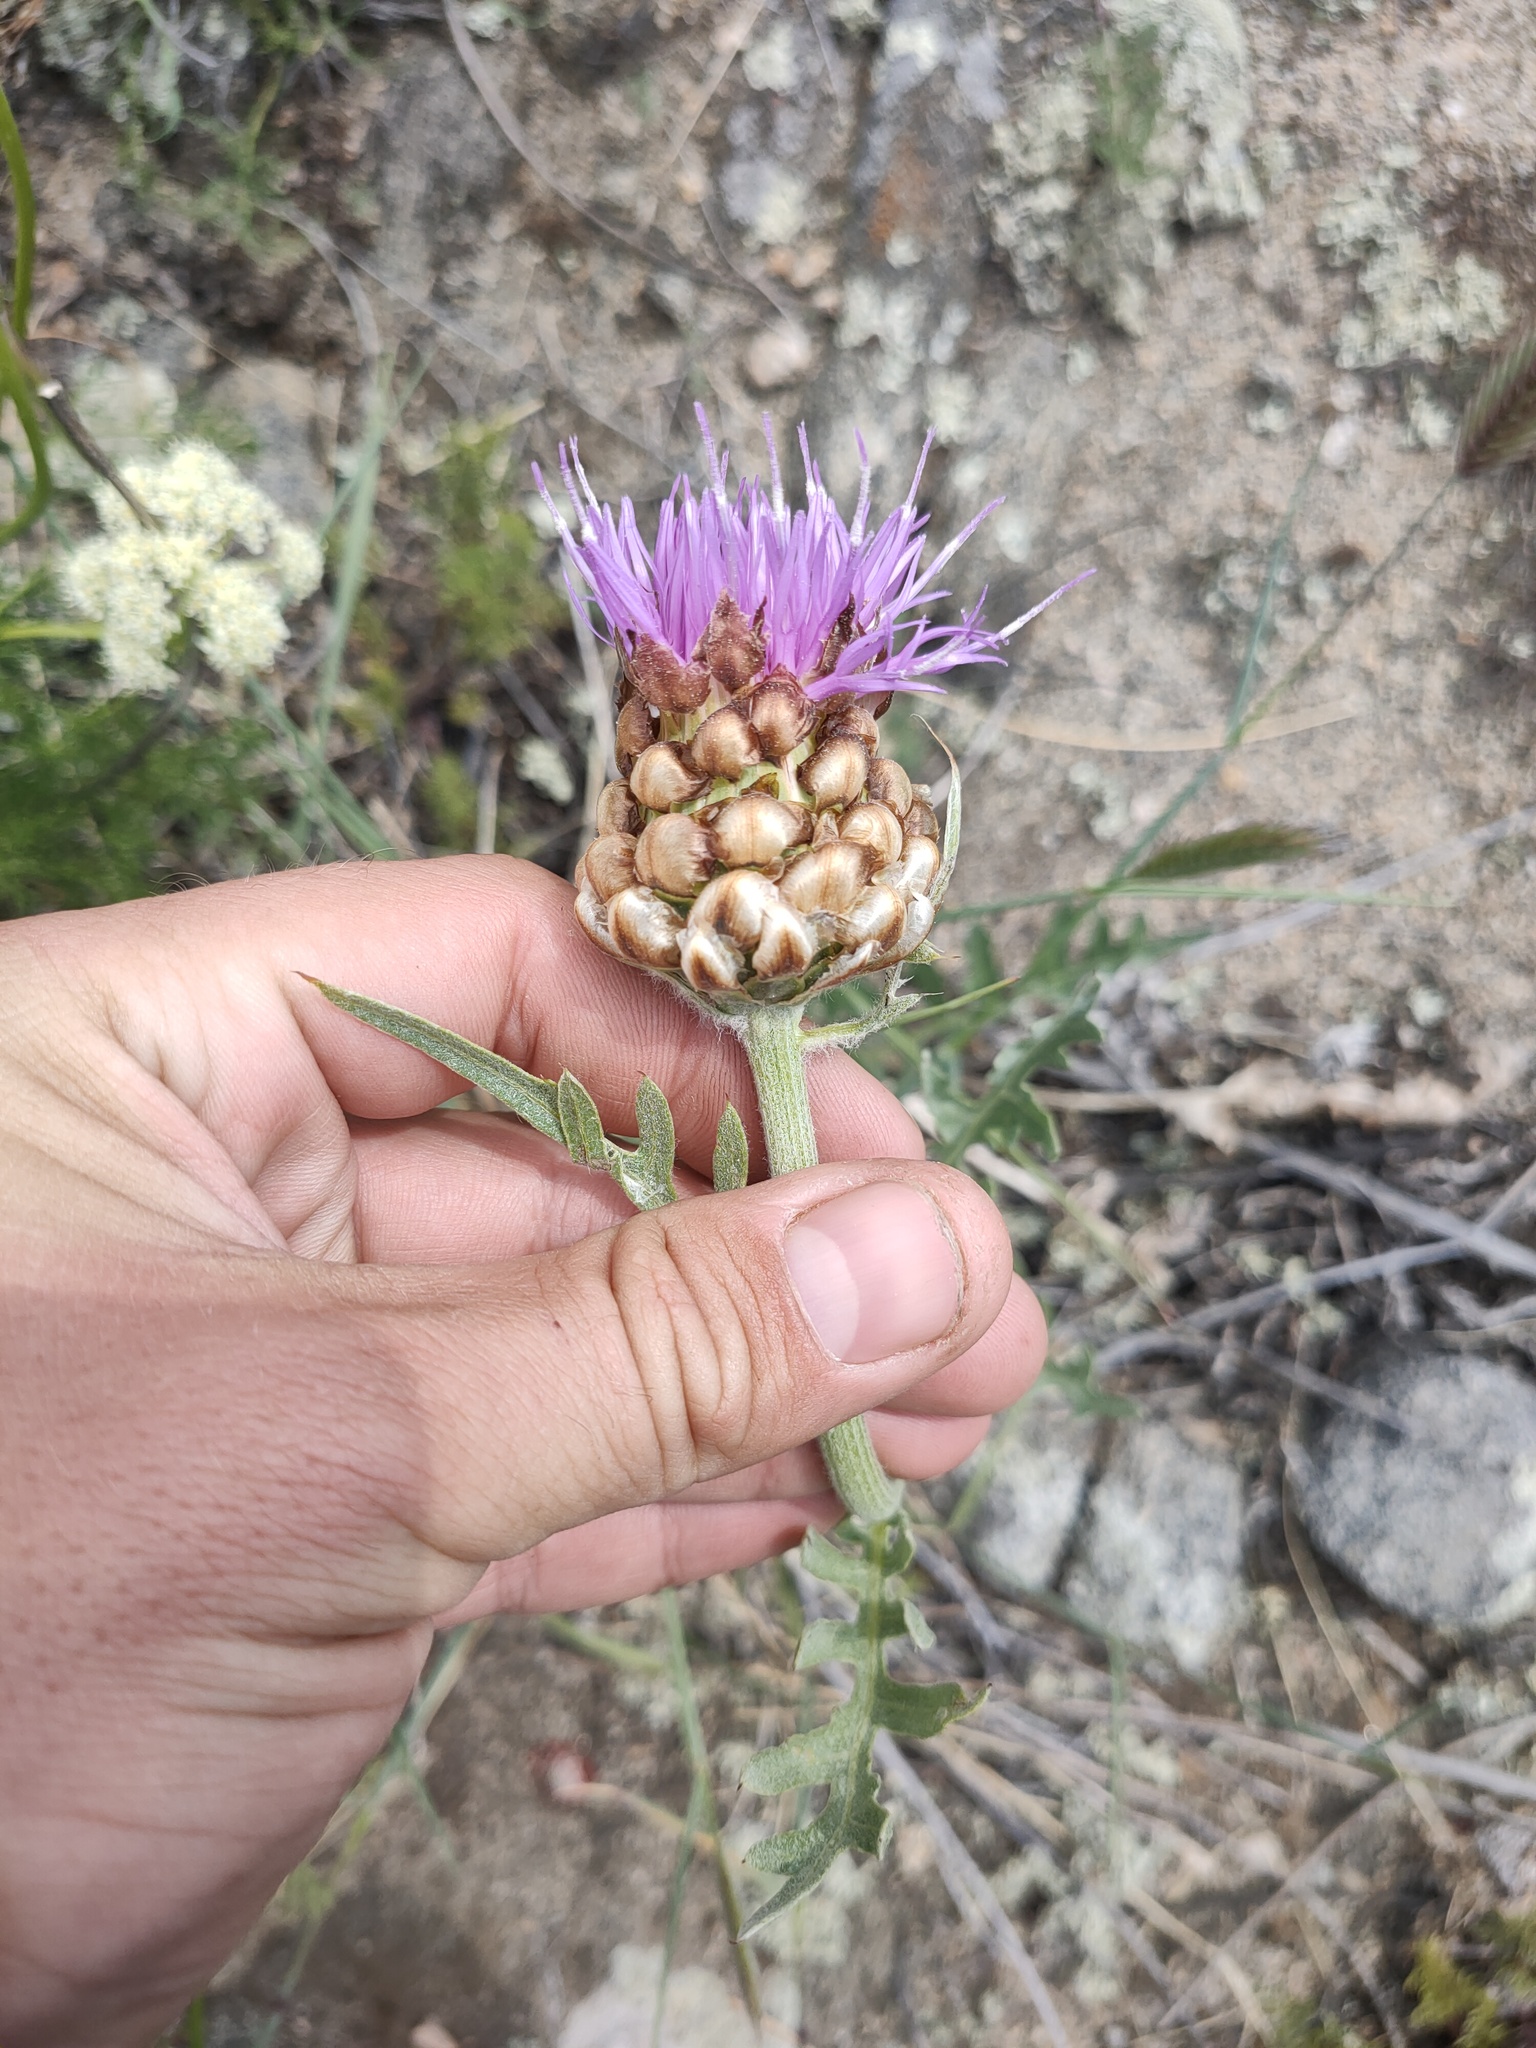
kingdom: Plantae
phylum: Tracheophyta
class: Magnoliopsida
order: Asterales
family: Asteraceae
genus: Leuzea
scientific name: Leuzea uniflora
